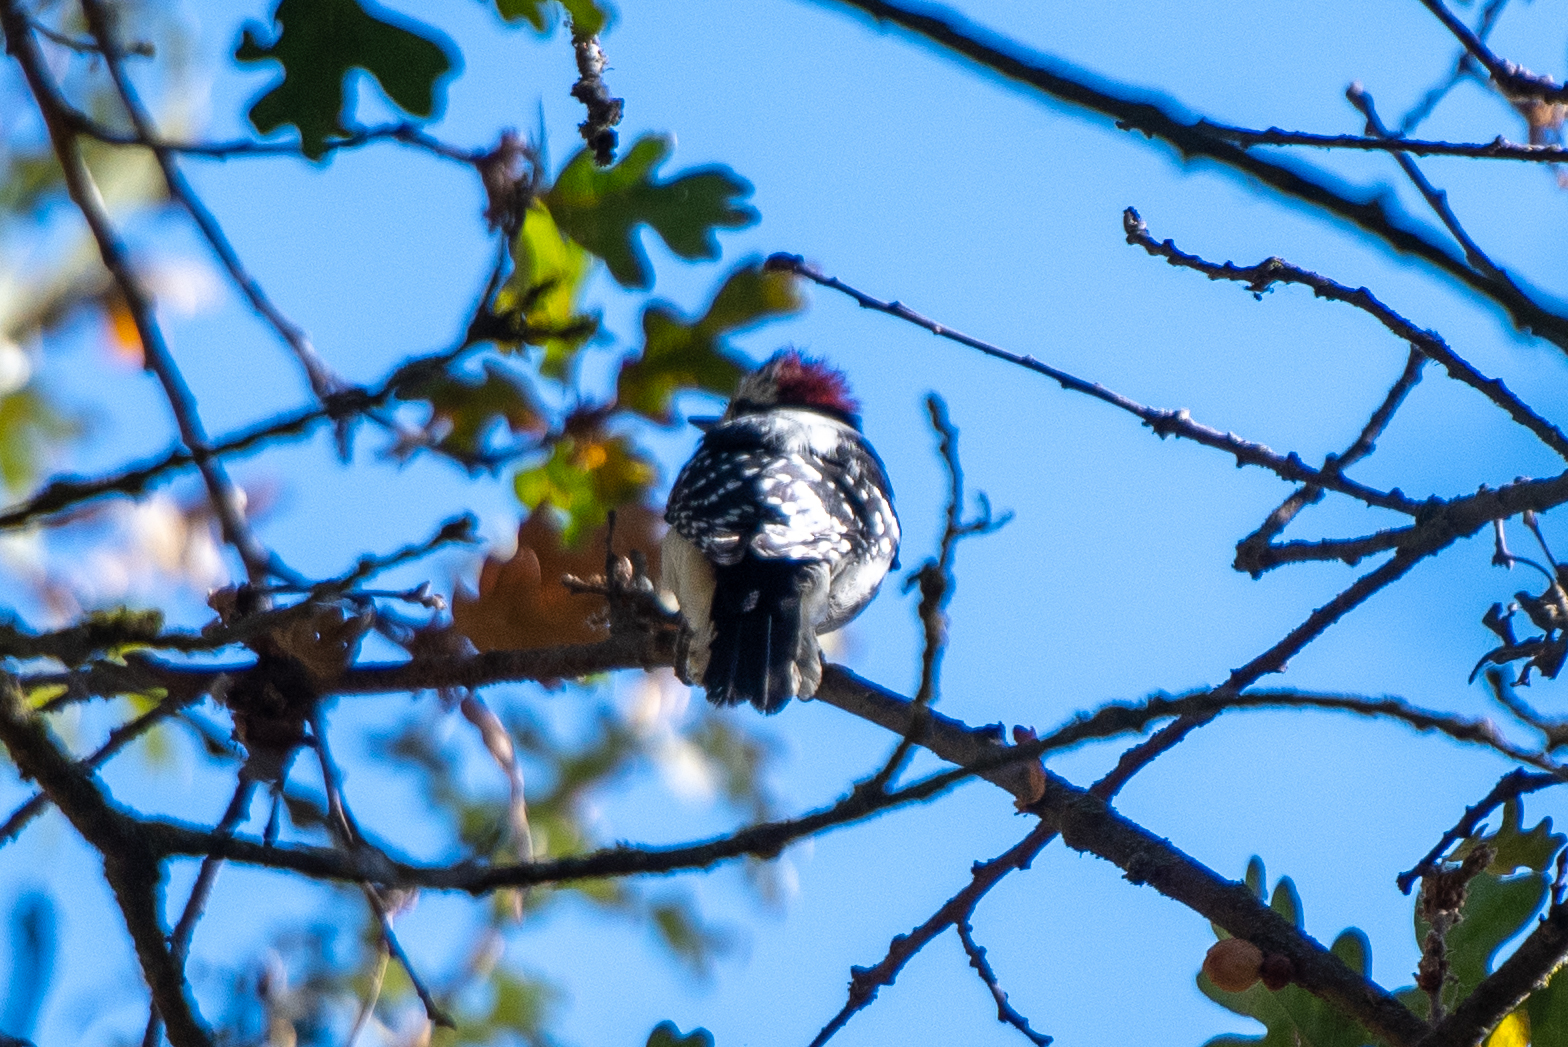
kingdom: Animalia
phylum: Chordata
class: Aves
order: Piciformes
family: Picidae
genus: Dryobates
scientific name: Dryobates nuttallii
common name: Nuttall's woodpecker
